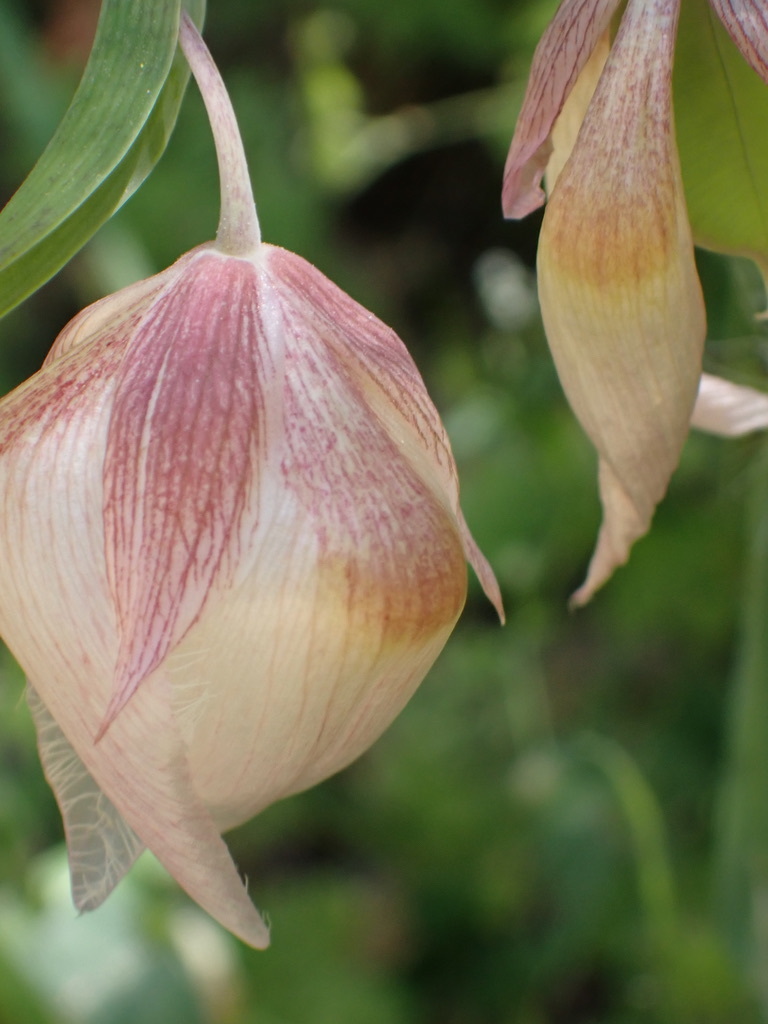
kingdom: Plantae
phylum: Tracheophyta
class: Liliopsida
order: Liliales
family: Liliaceae
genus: Calochortus
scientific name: Calochortus albus
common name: Fairy-lantern
